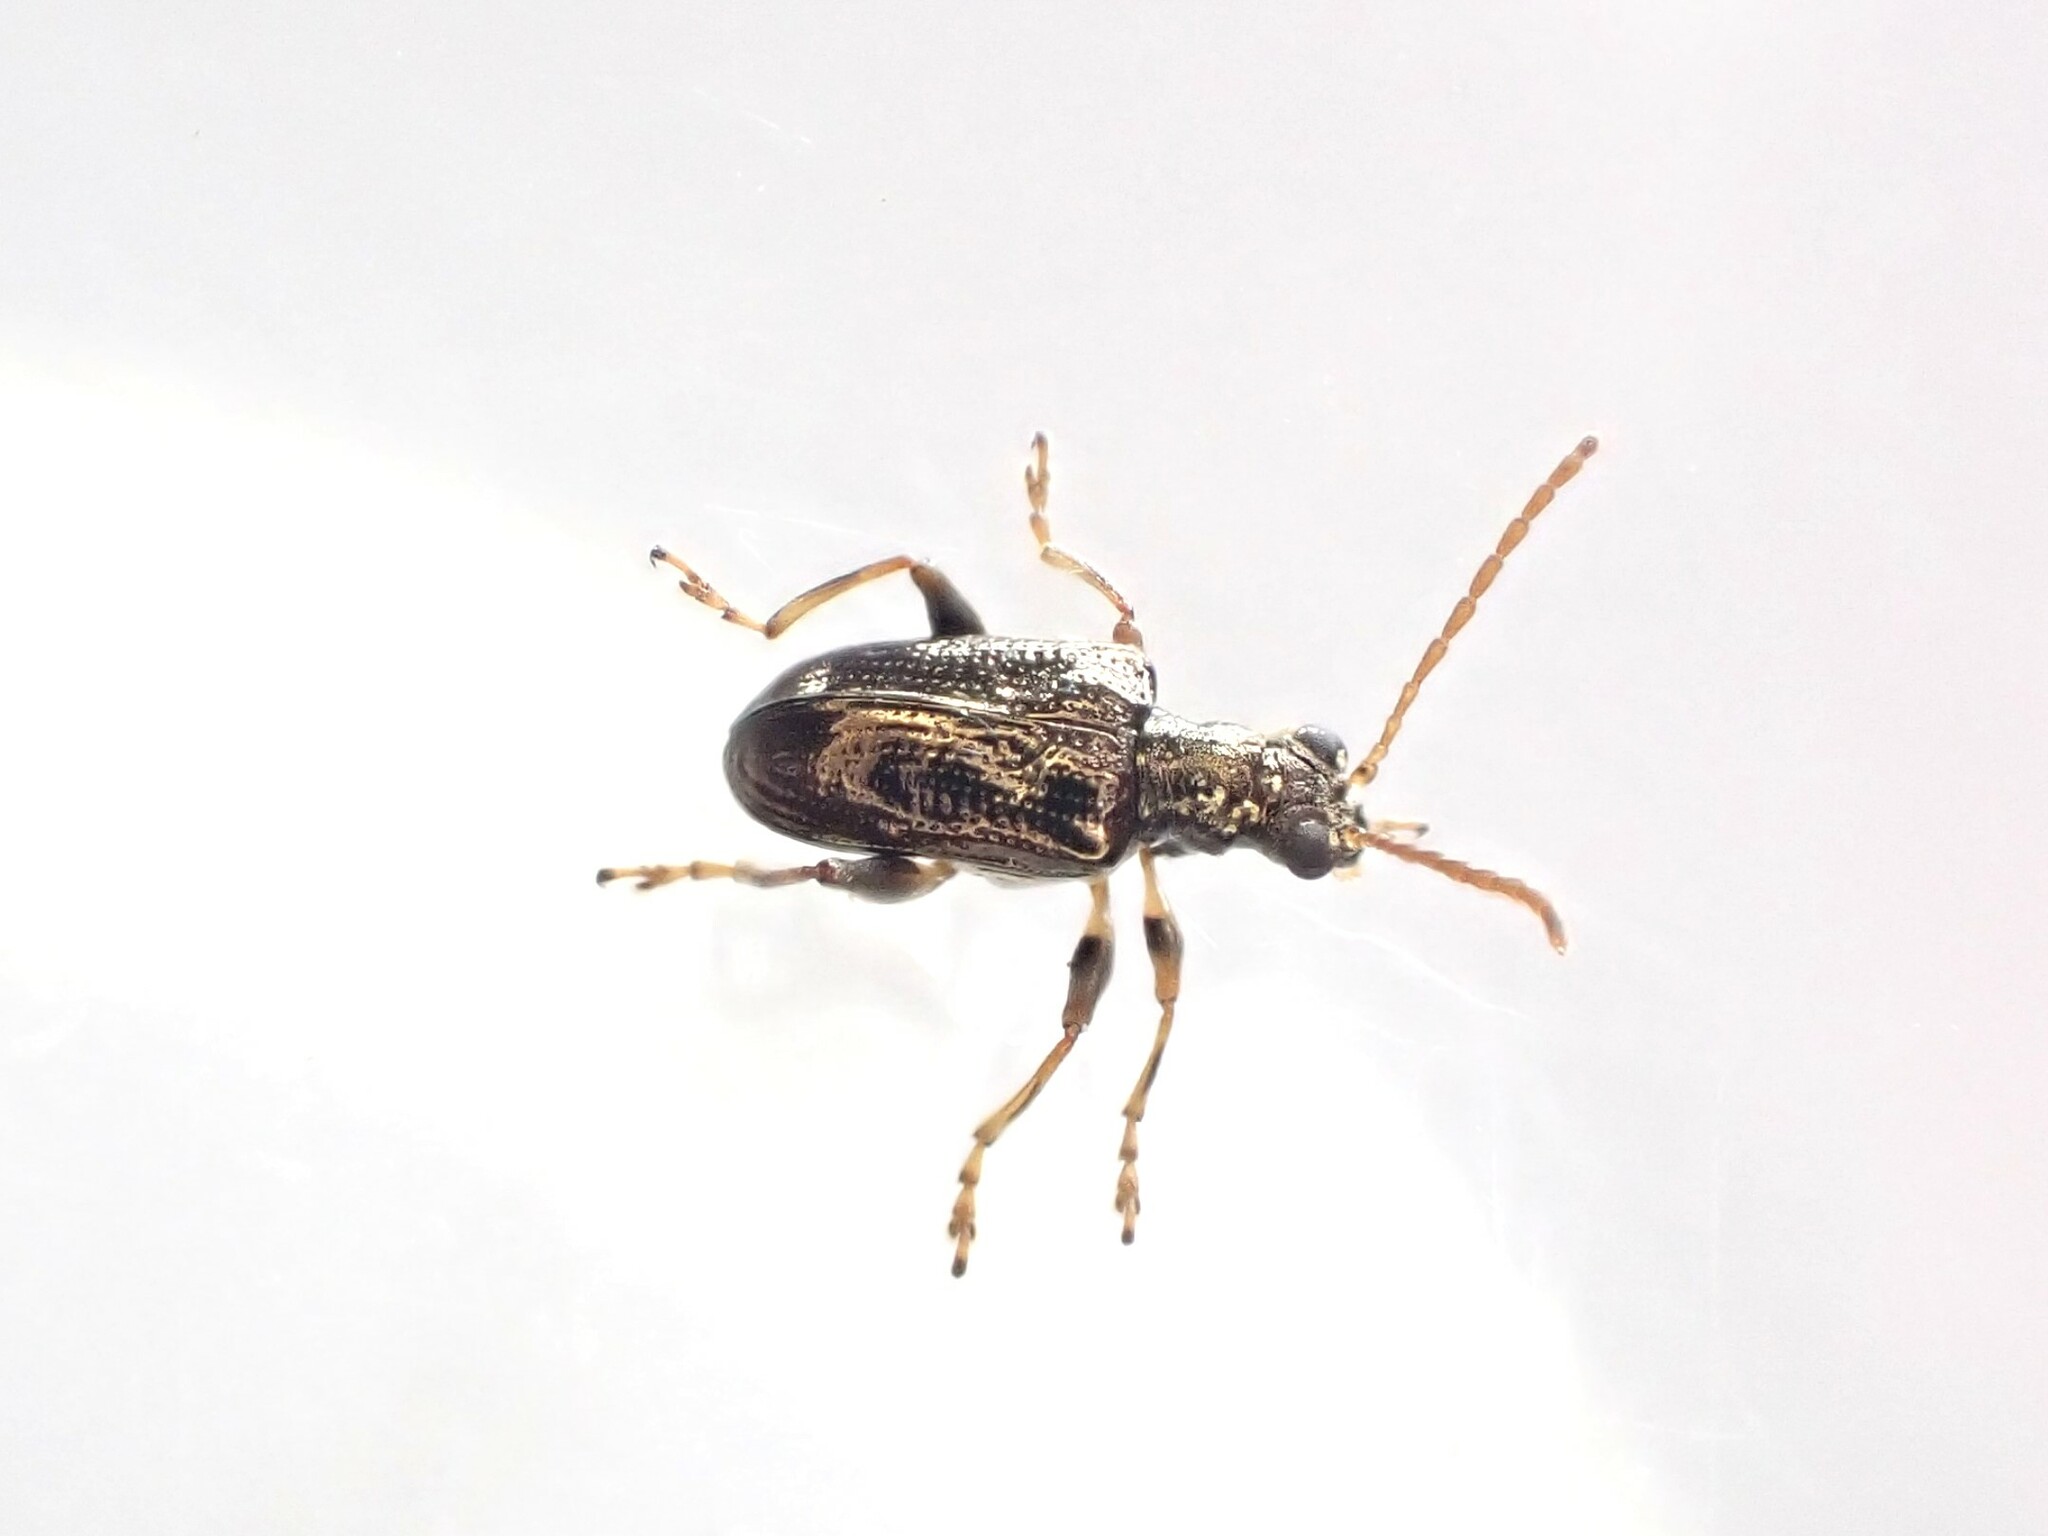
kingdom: Animalia
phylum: Arthropoda
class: Insecta
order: Coleoptera
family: Chrysomelidae
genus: Neolema
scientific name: Neolema ogloblini
